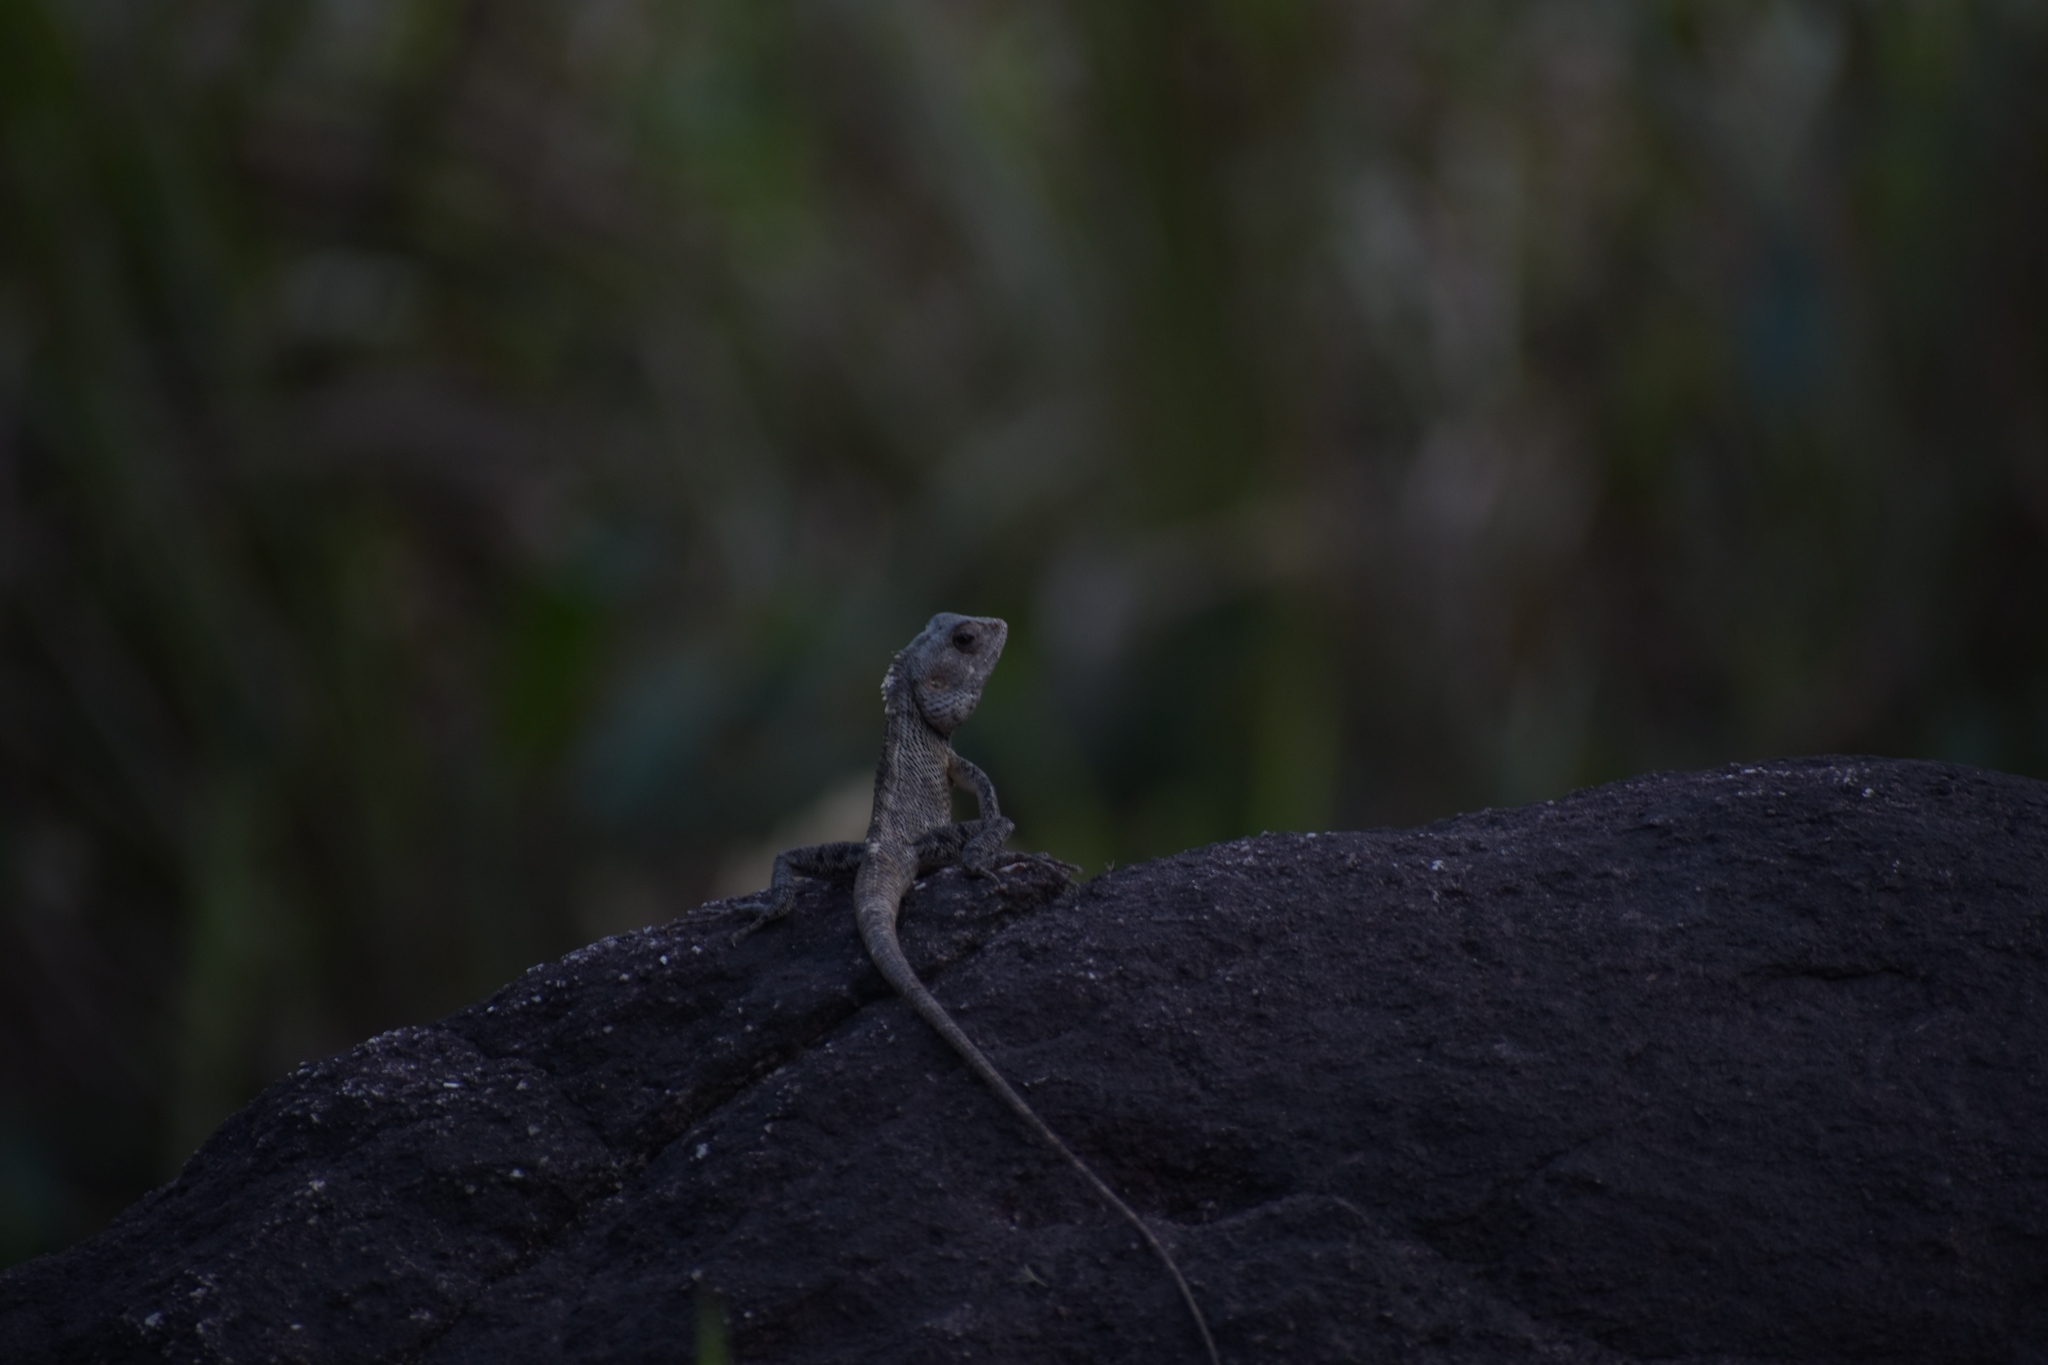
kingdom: Animalia
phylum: Chordata
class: Squamata
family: Agamidae
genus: Calotes
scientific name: Calotes versicolor
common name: Oriental garden lizard
